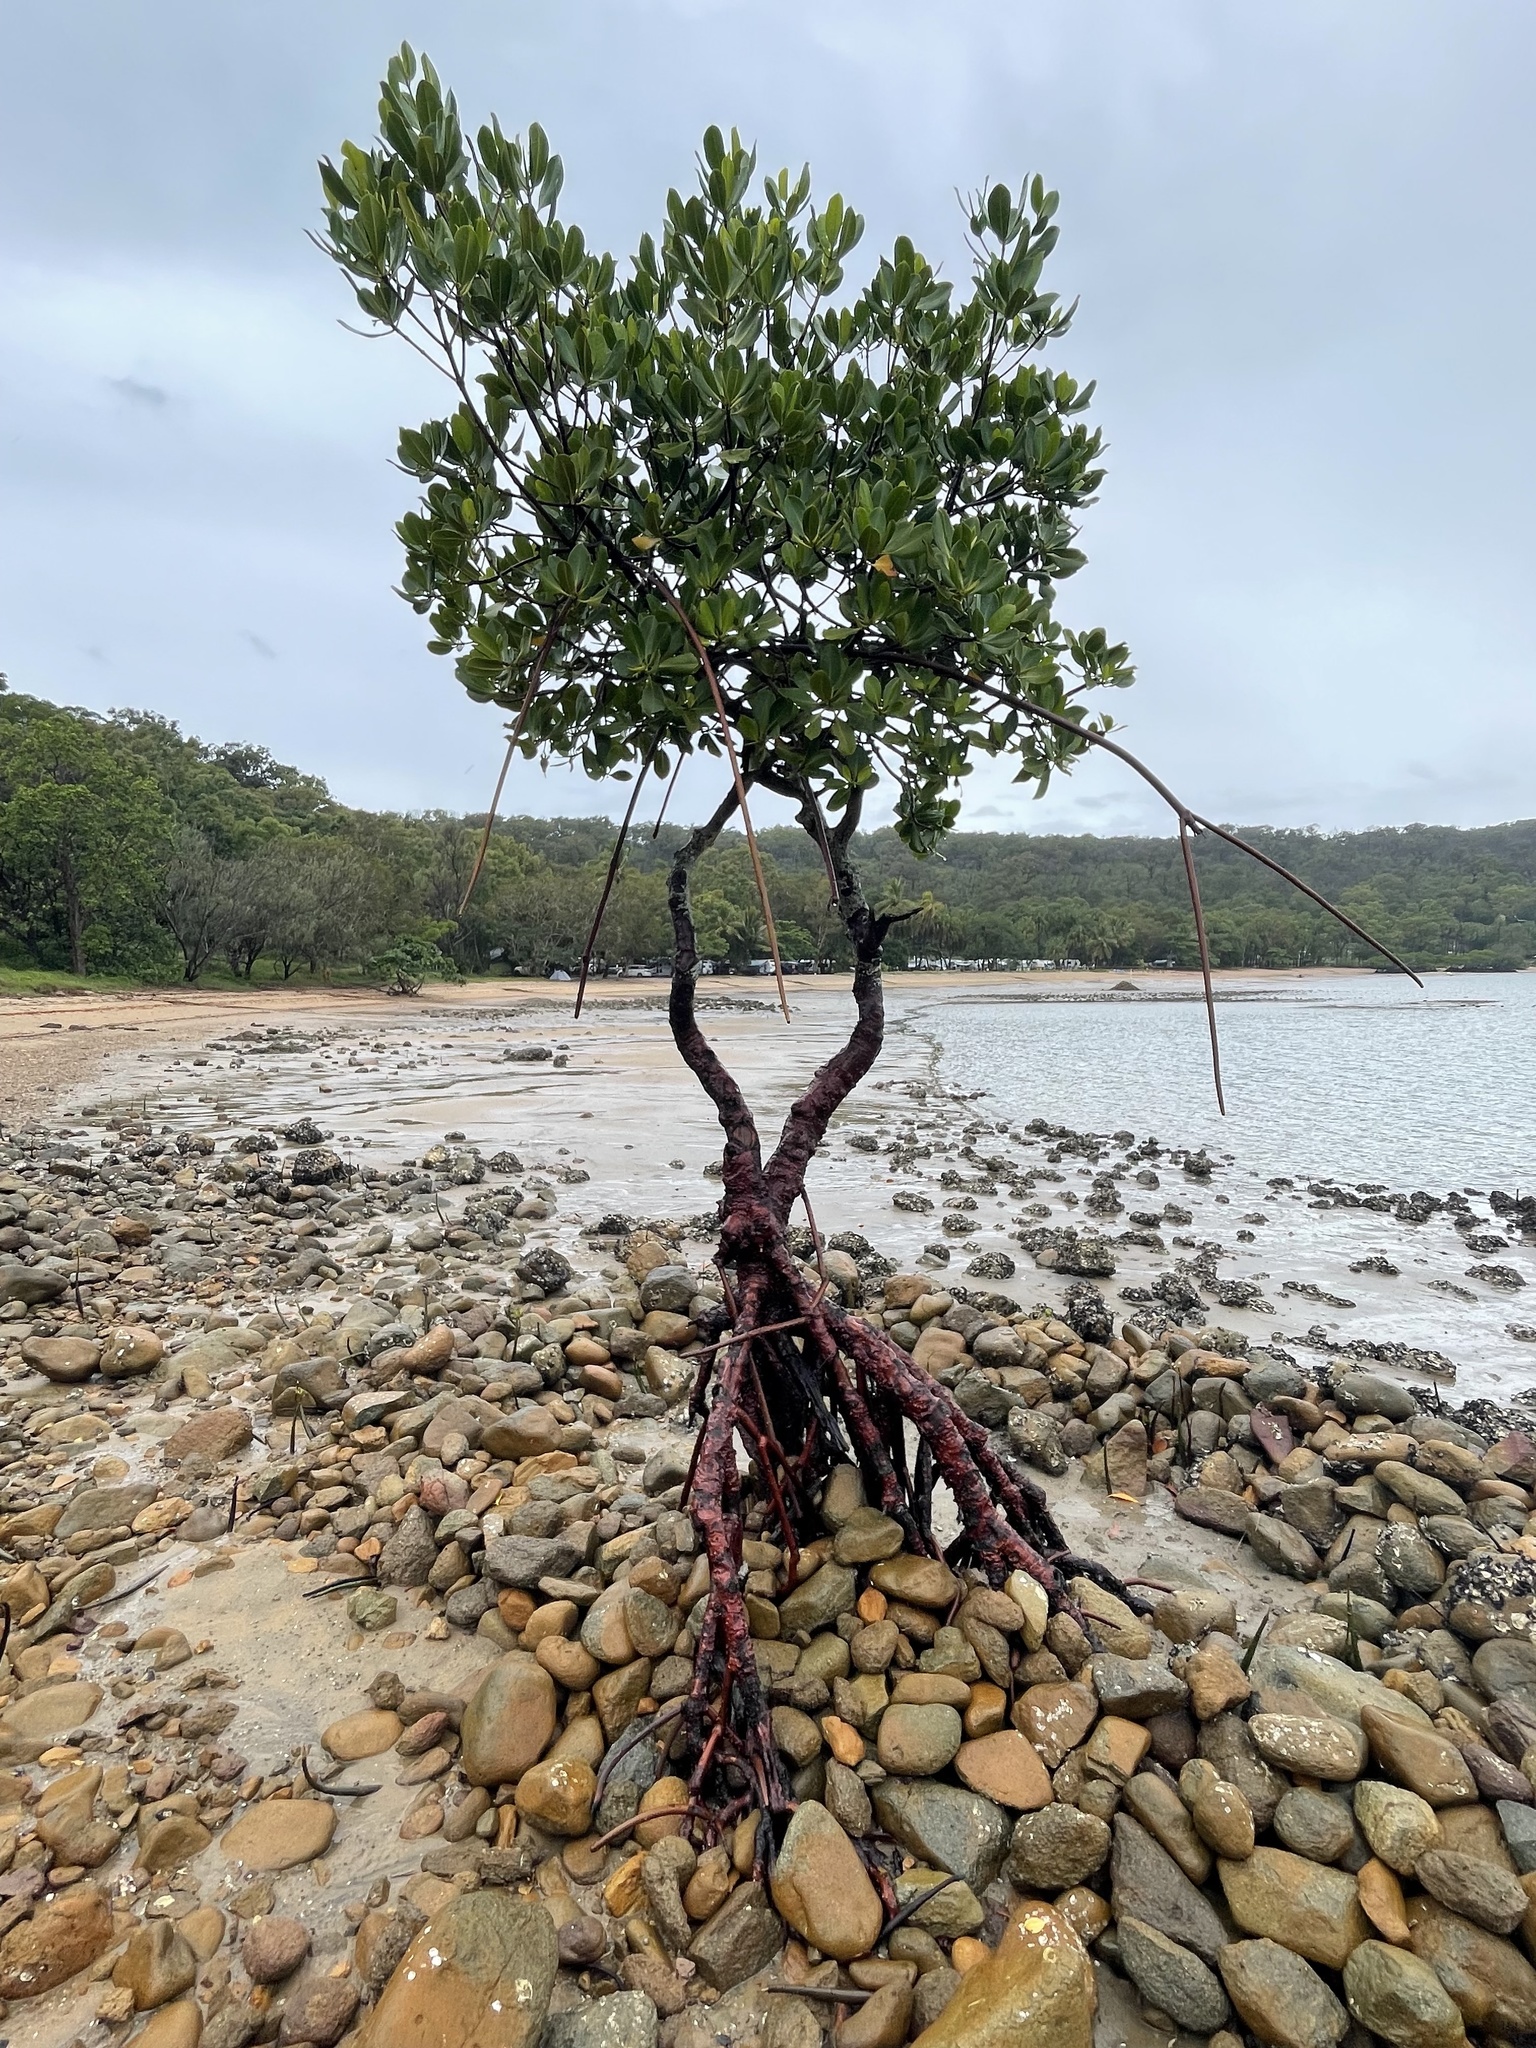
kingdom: Plantae
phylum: Tracheophyta
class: Magnoliopsida
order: Malpighiales
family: Rhizophoraceae
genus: Rhizophora
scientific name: Rhizophora stylosa
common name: Red mangrove
